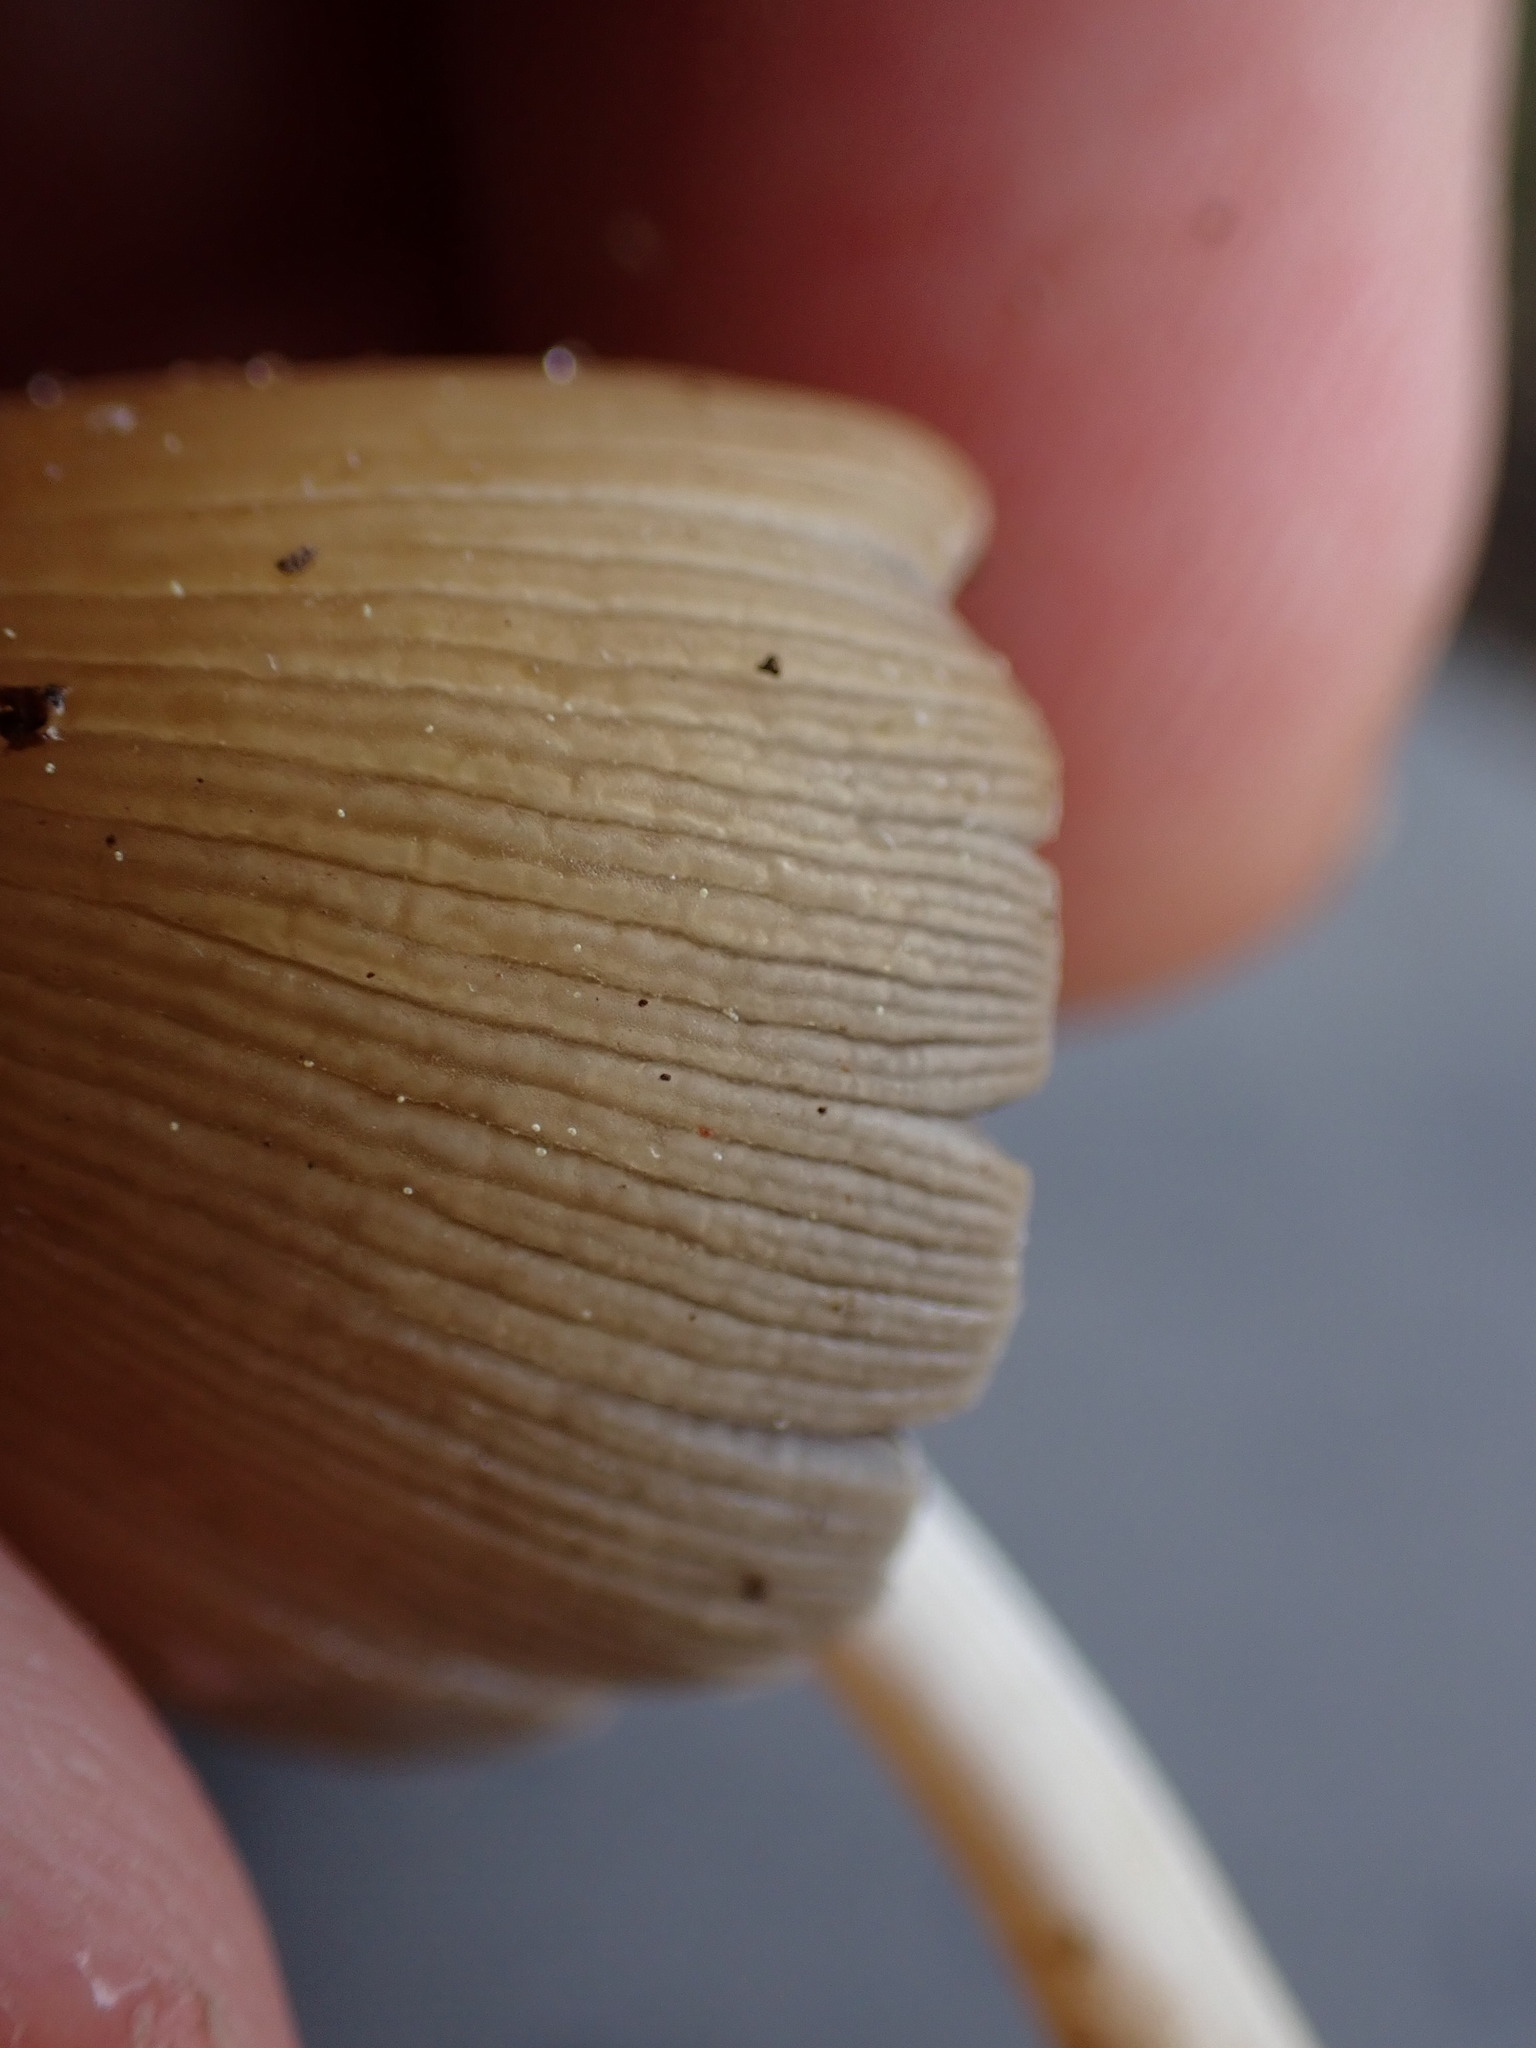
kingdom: Fungi
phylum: Basidiomycota
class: Agaricomycetes
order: Agaricales
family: Psathyrellaceae
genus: Coprinellus
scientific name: Coprinellus micaceus
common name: Glistening ink-cap
